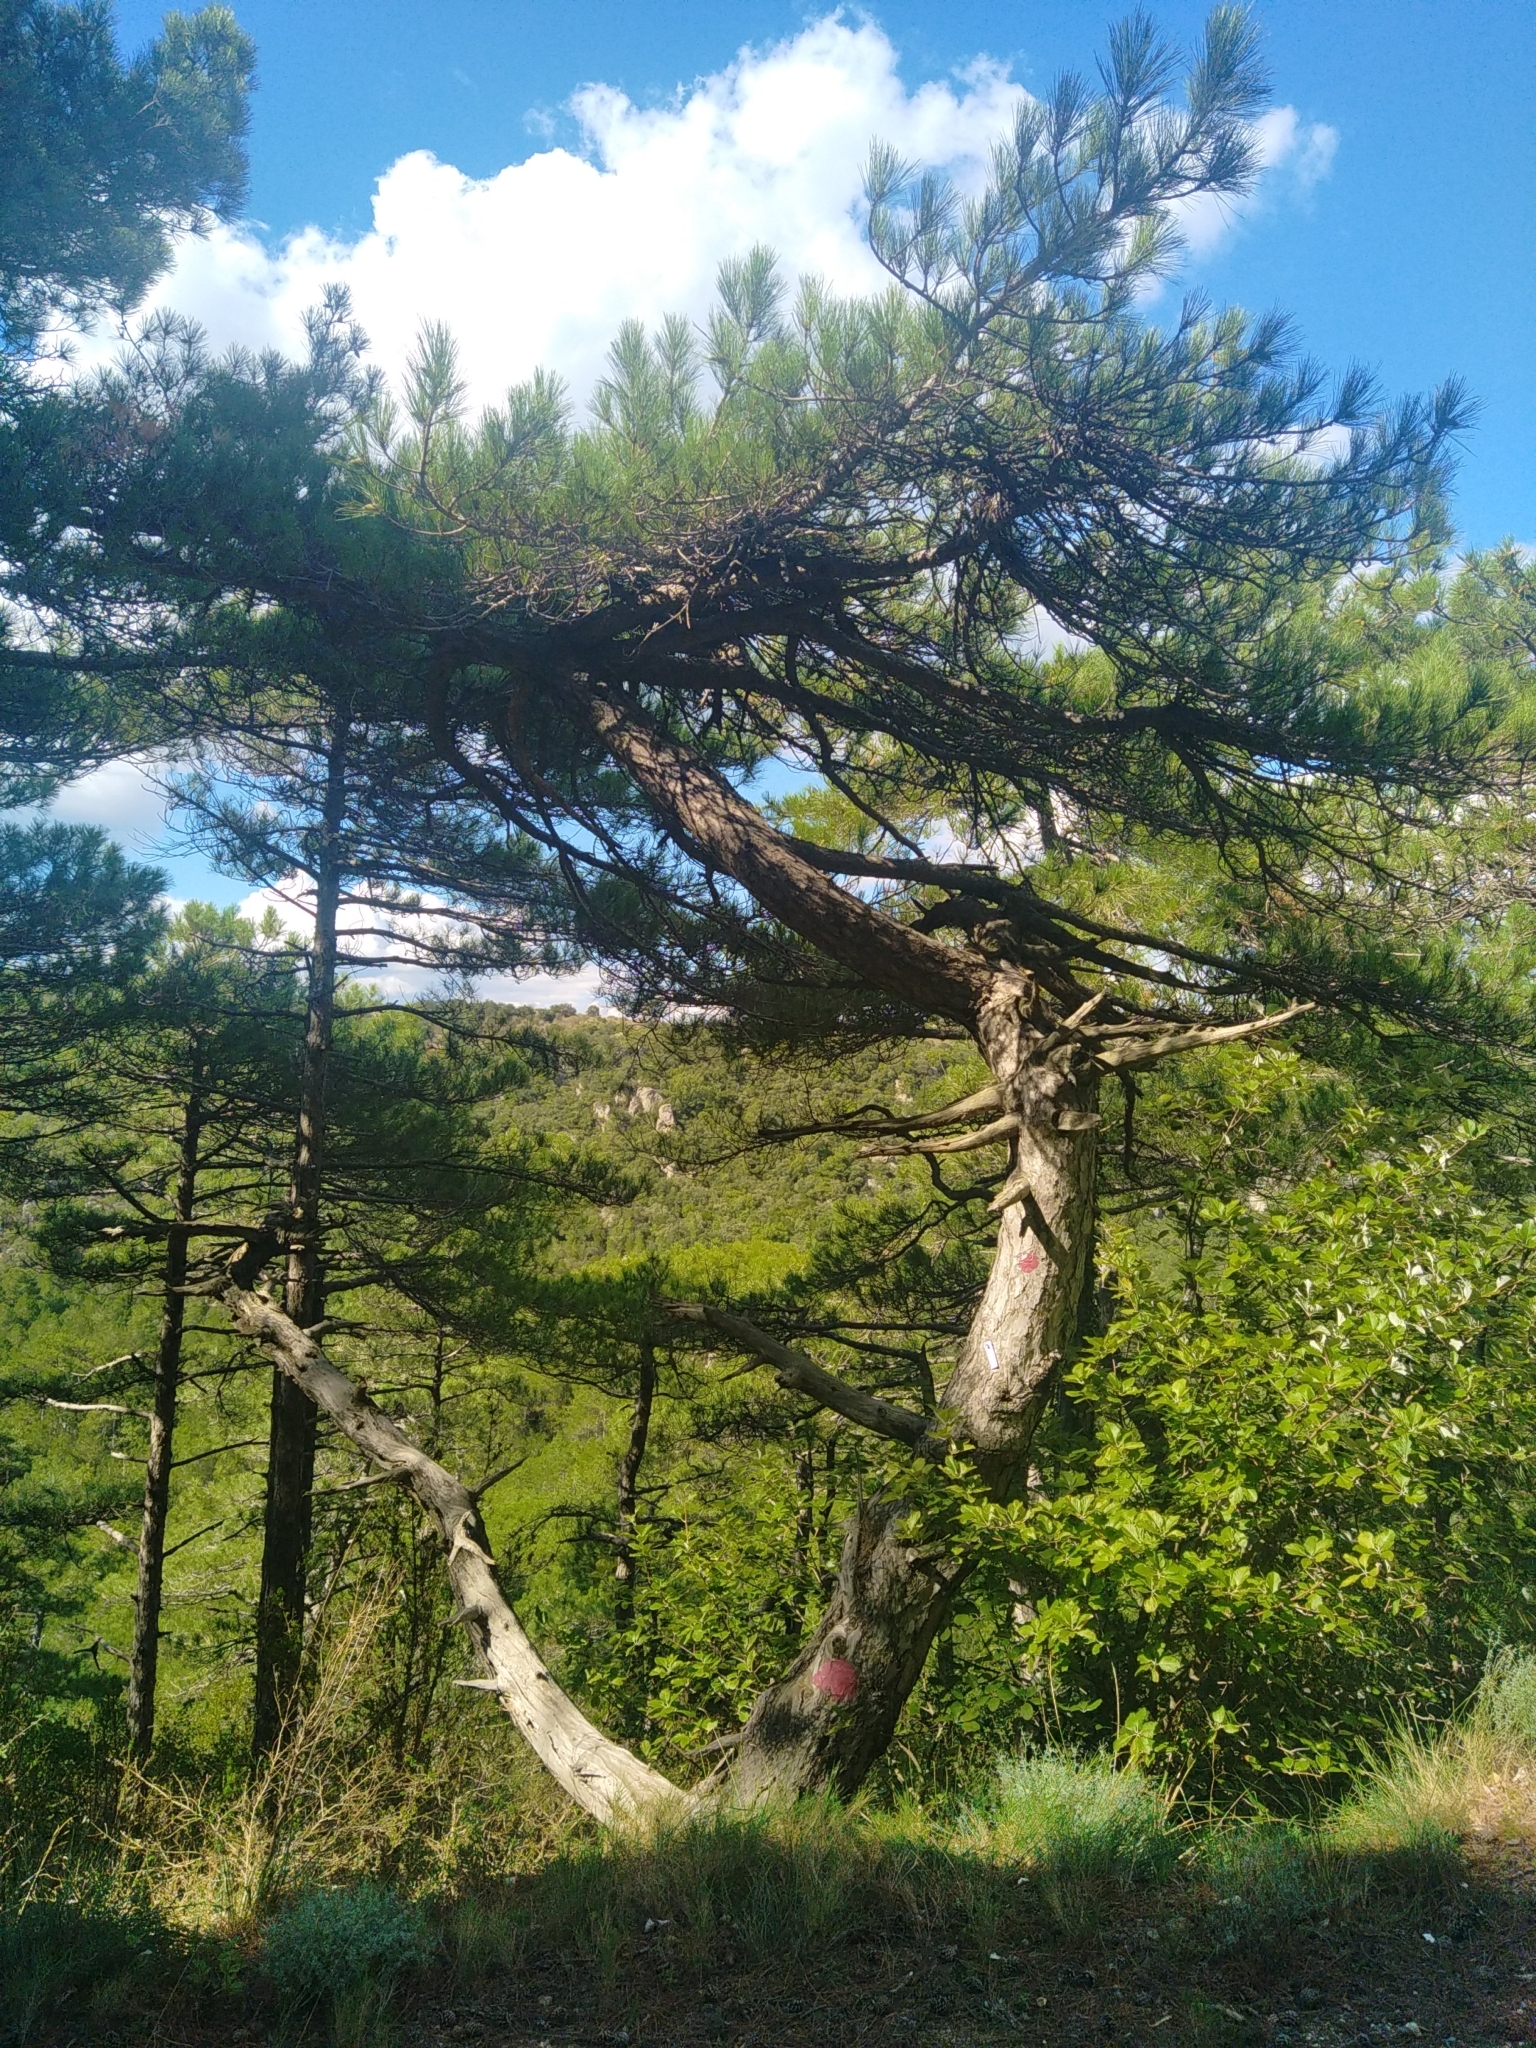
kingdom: Plantae
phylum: Tracheophyta
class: Pinopsida
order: Pinales
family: Pinaceae
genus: Pinus
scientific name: Pinus nigra
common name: Austrian pine
